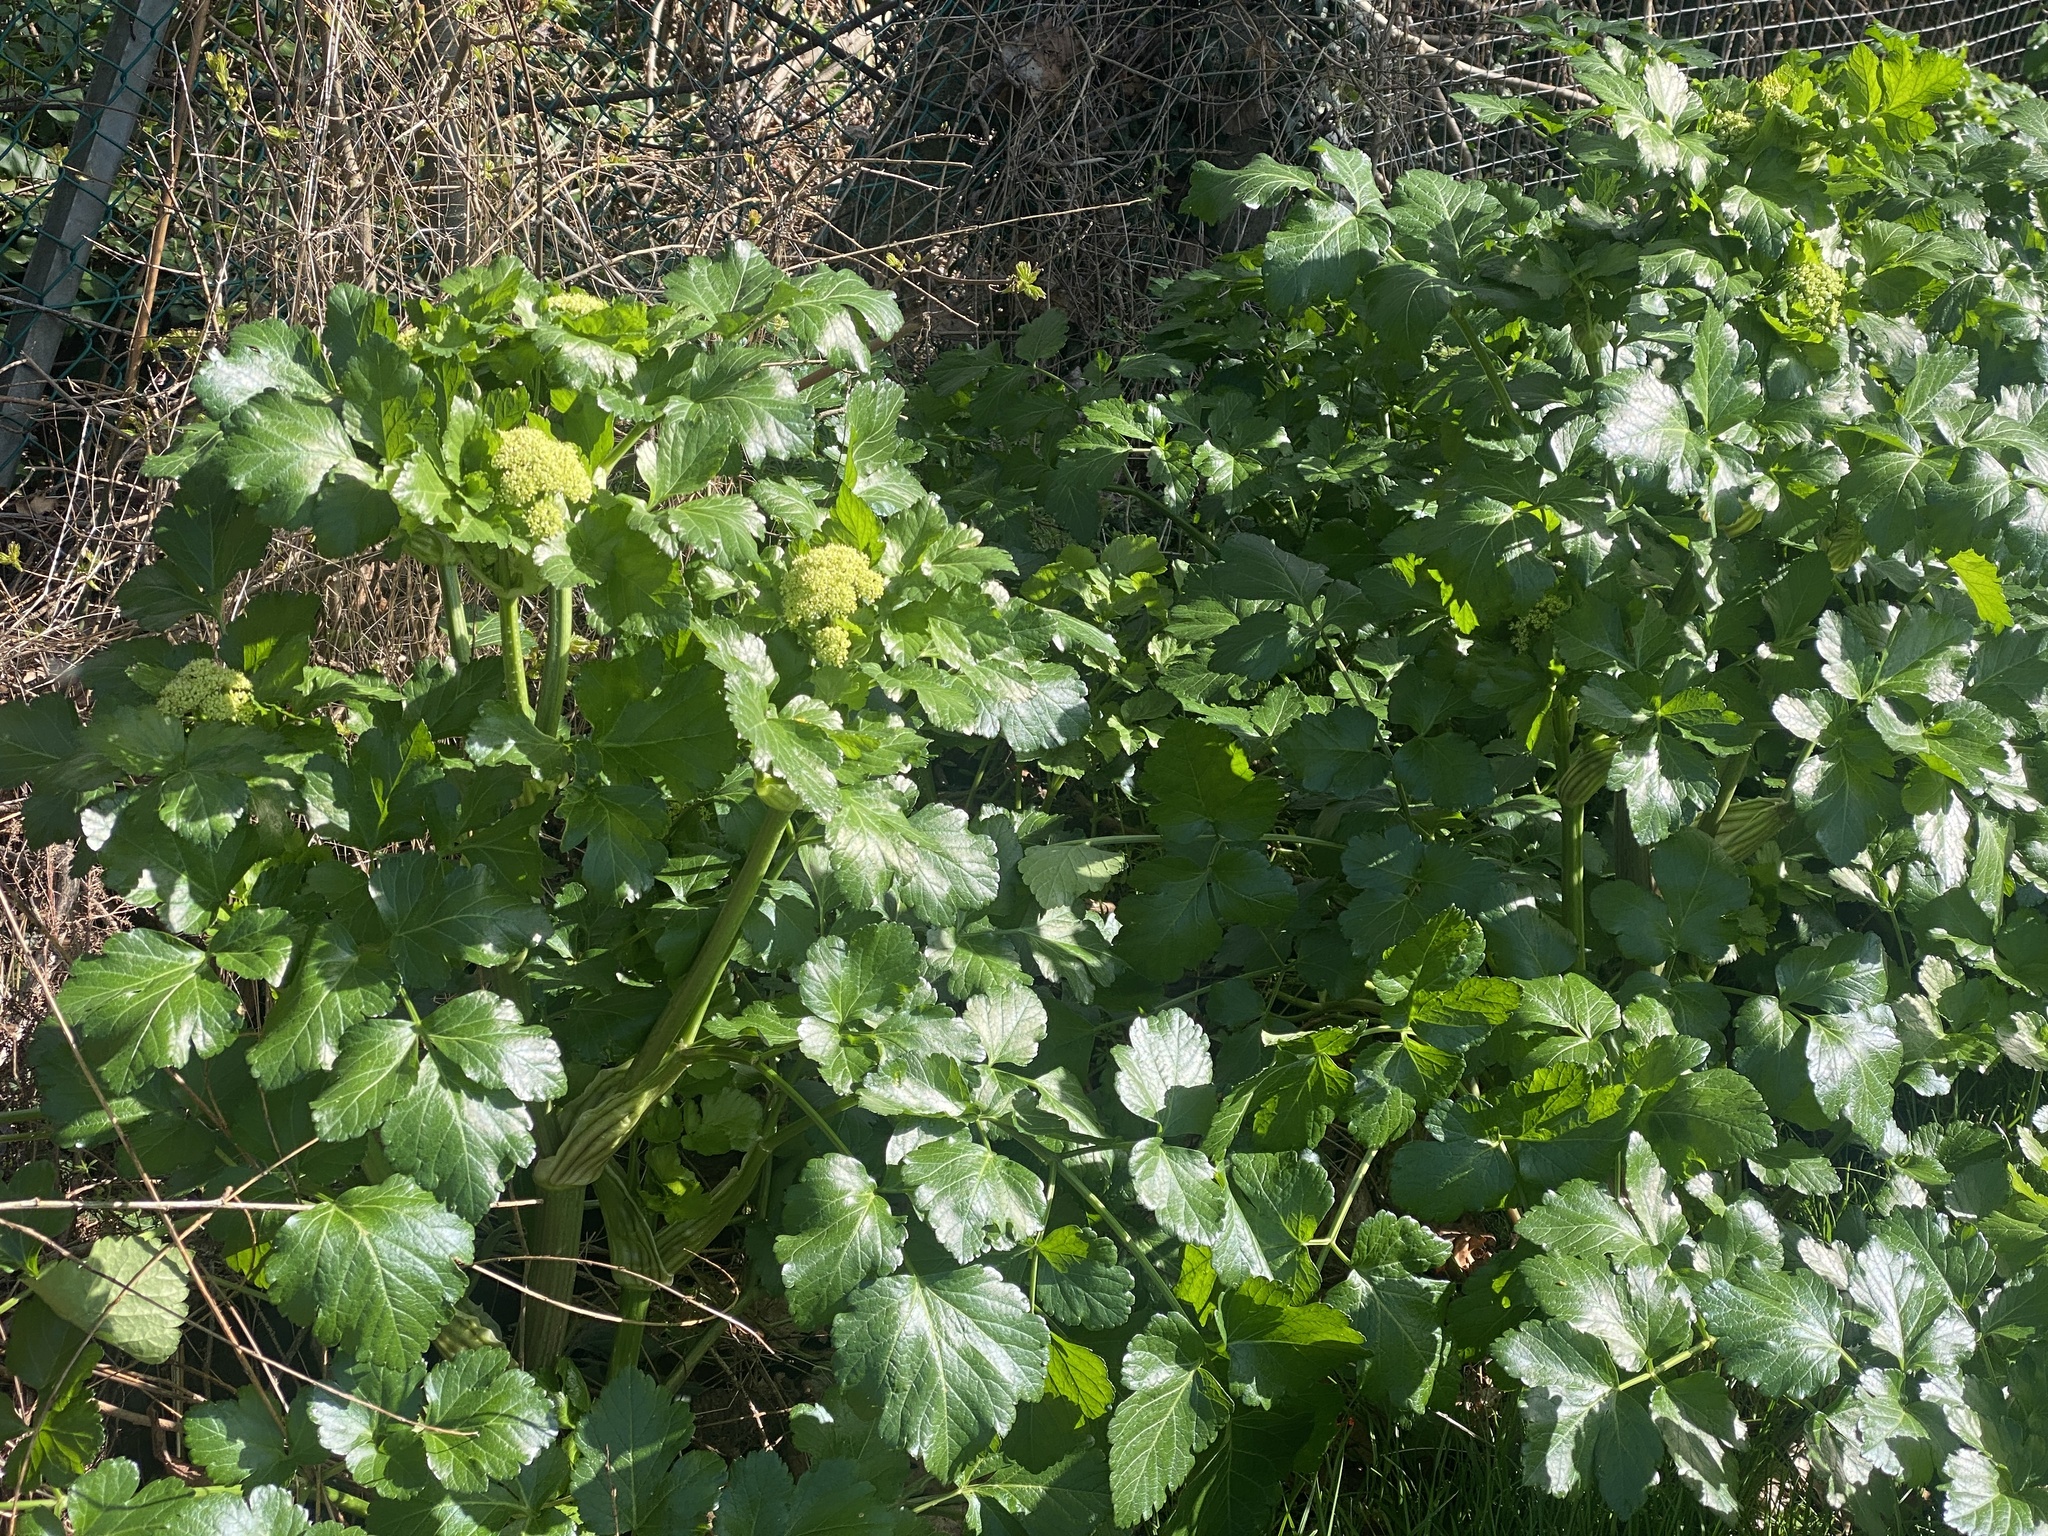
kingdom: Plantae
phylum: Tracheophyta
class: Magnoliopsida
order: Apiales
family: Apiaceae
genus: Smyrnium
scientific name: Smyrnium olusatrum
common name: Alexanders
